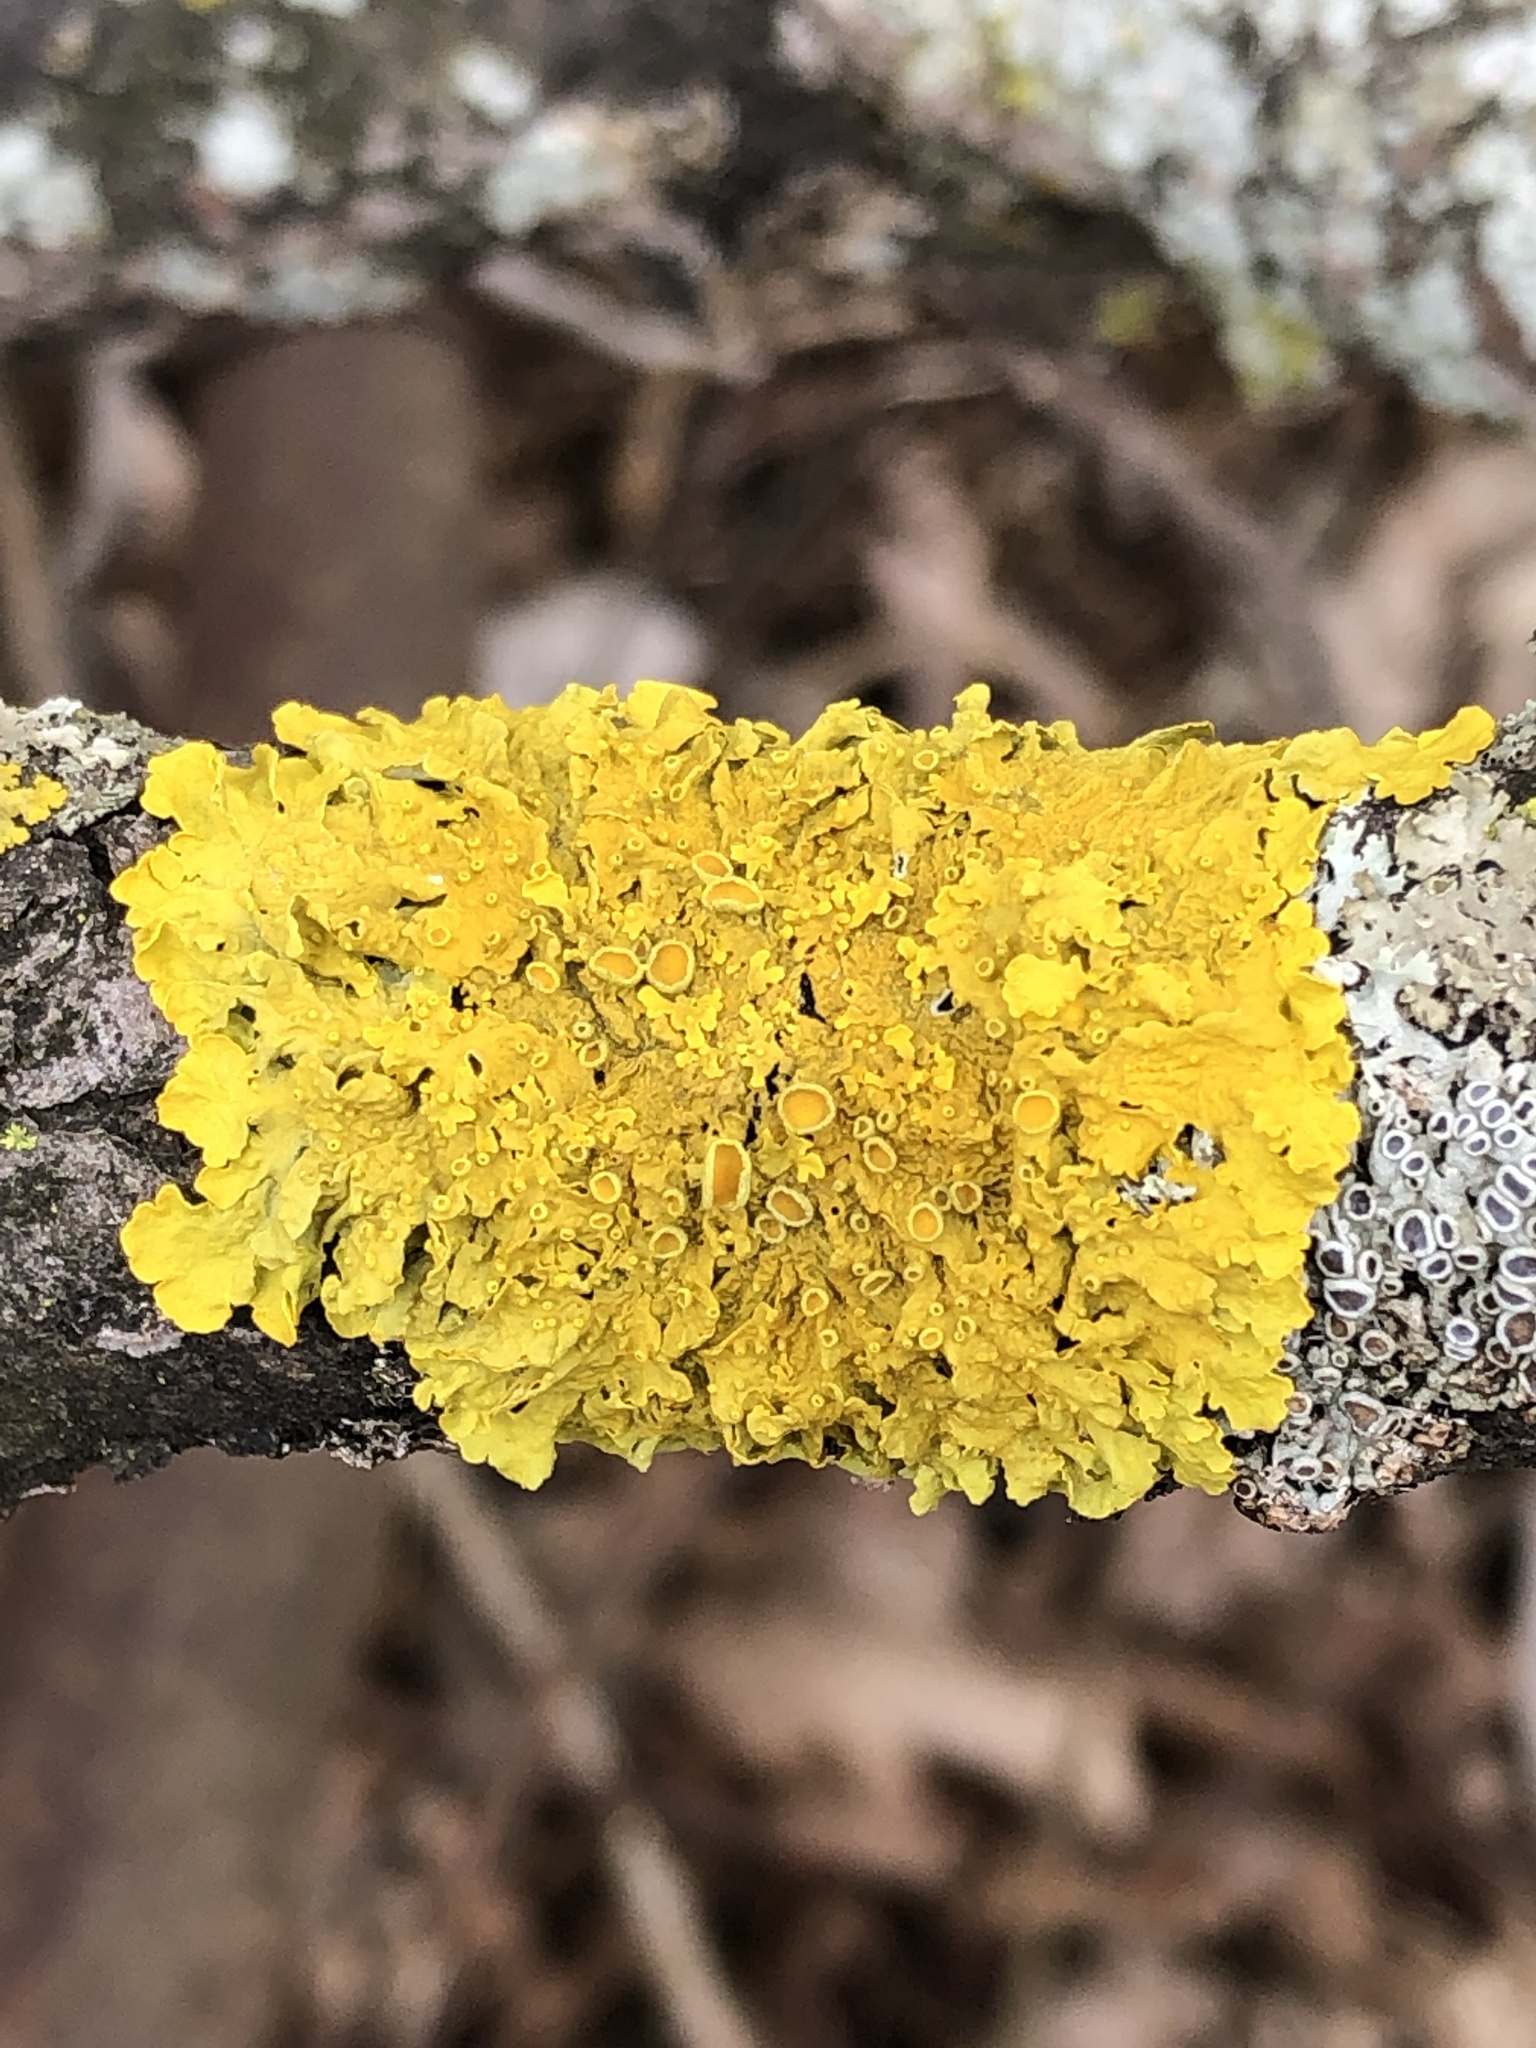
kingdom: Fungi
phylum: Ascomycota
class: Lecanoromycetes
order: Teloschistales
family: Teloschistaceae
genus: Xanthoria
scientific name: Xanthoria parietina
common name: Common orange lichen
